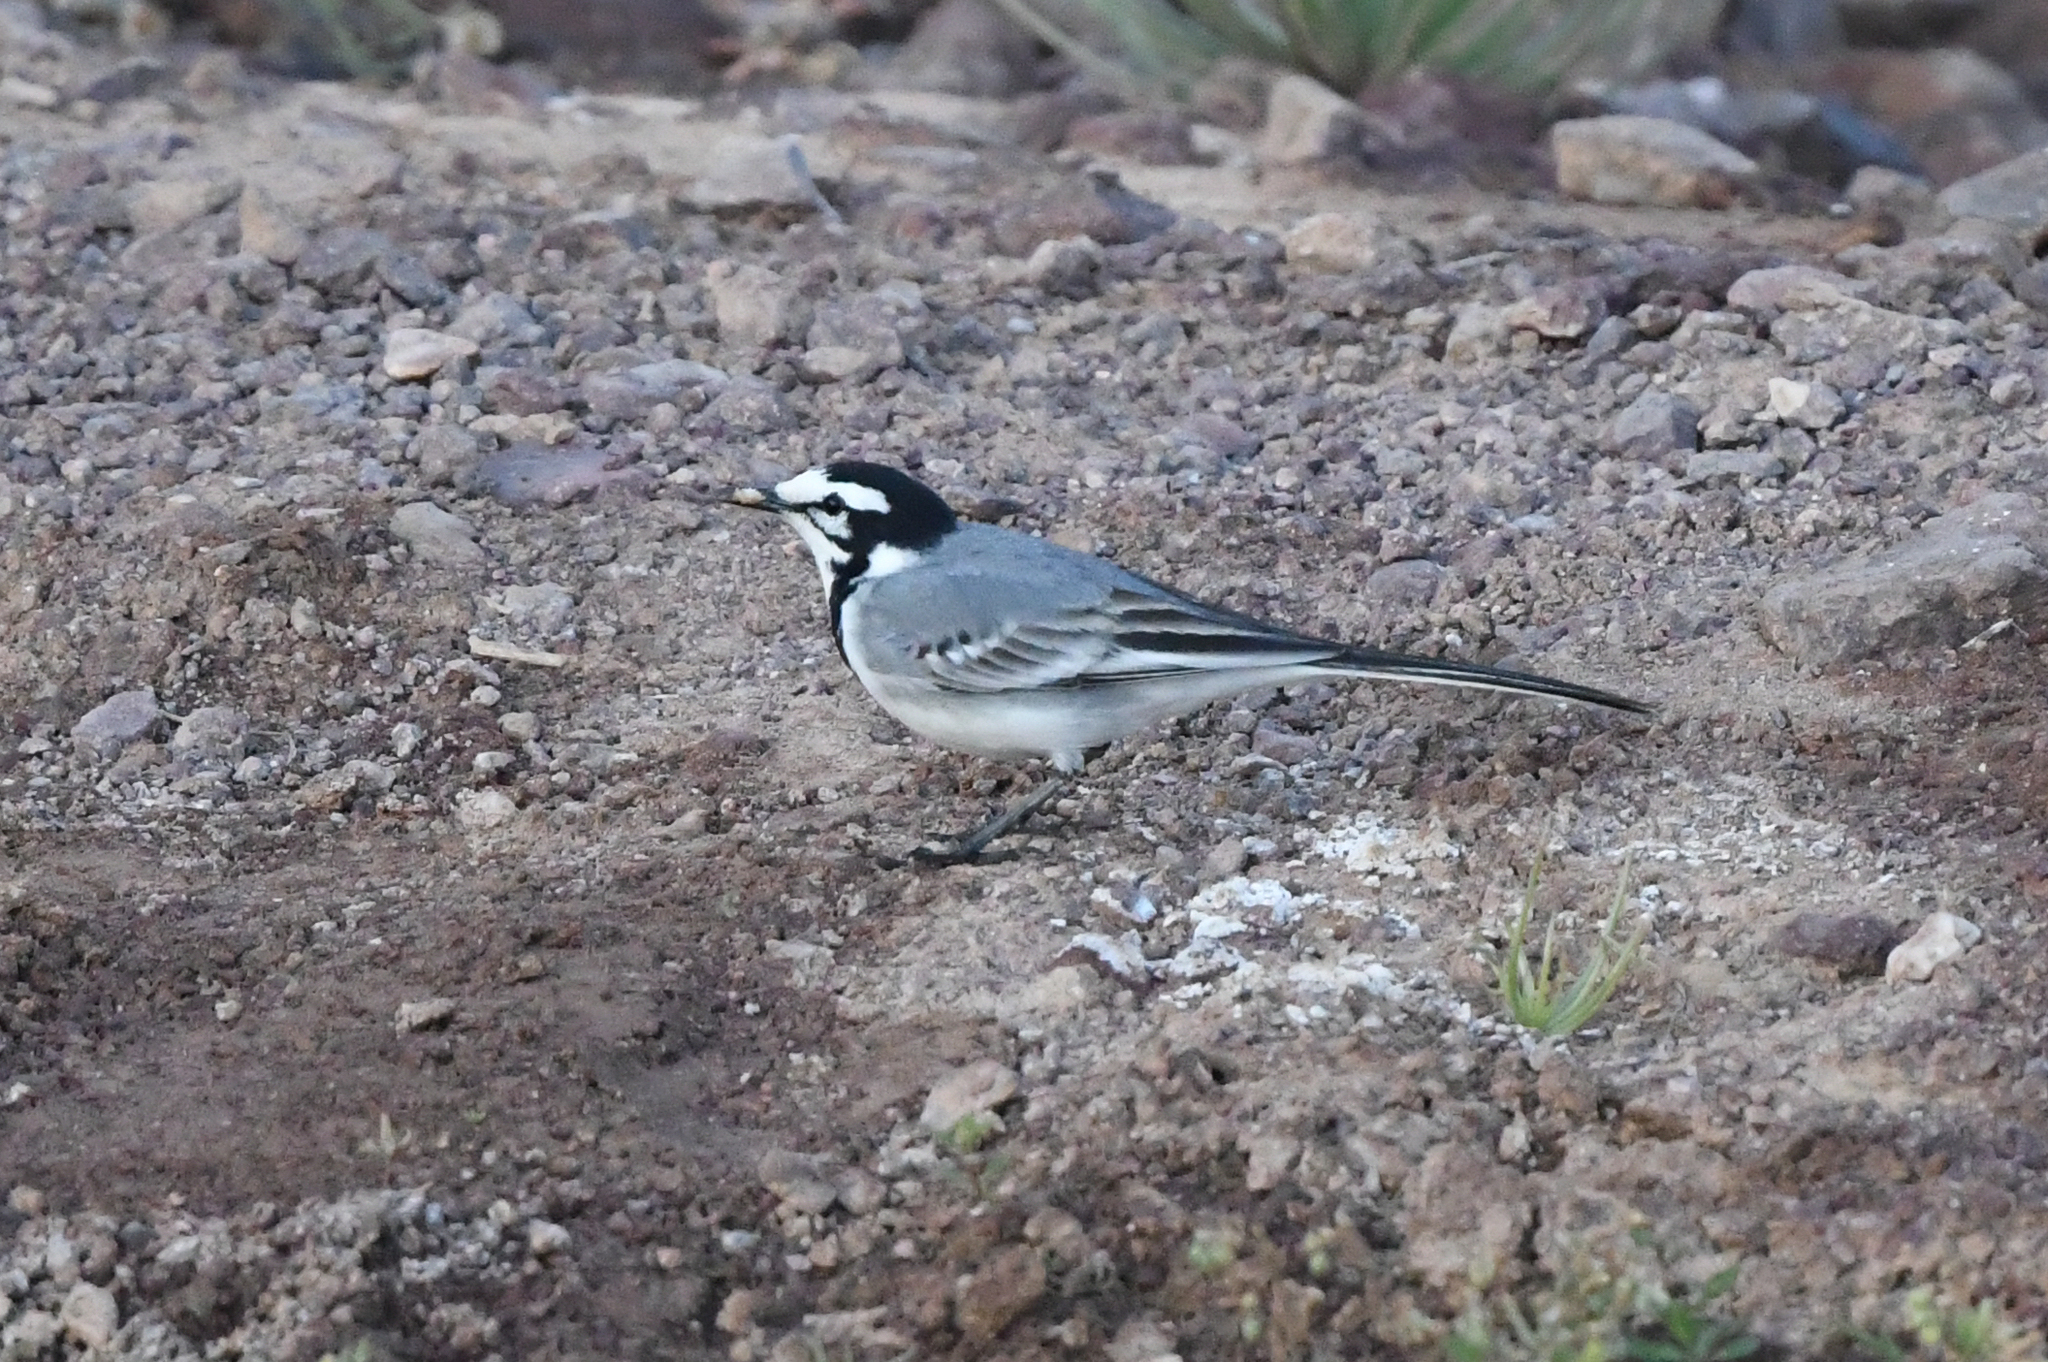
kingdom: Animalia
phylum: Chordata
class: Aves
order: Passeriformes
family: Motacillidae
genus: Motacilla
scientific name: Motacilla alba
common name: White wagtail
